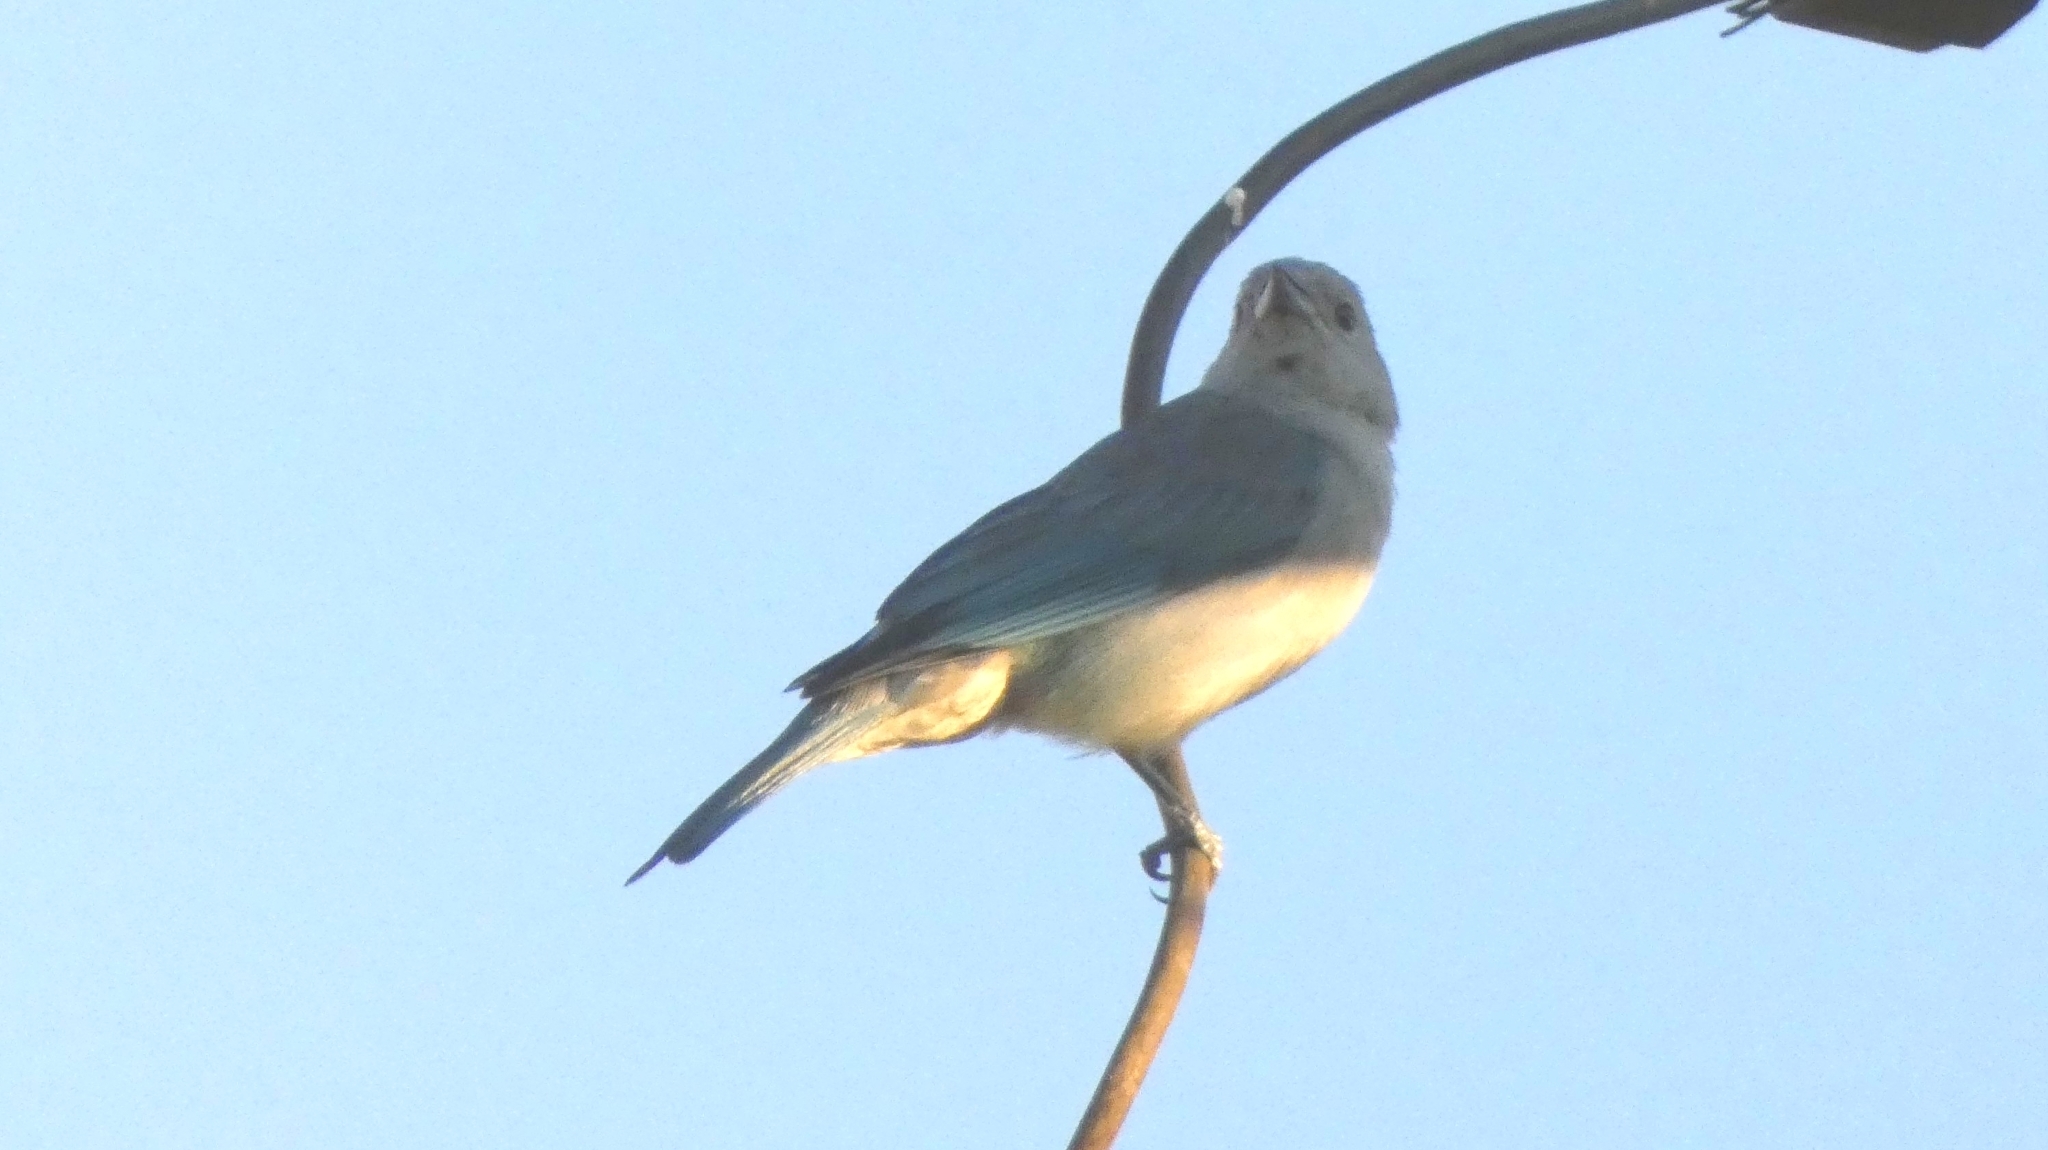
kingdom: Animalia
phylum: Chordata
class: Aves
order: Passeriformes
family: Thraupidae
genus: Thraupis
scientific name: Thraupis sayaca
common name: Sayaca tanager
